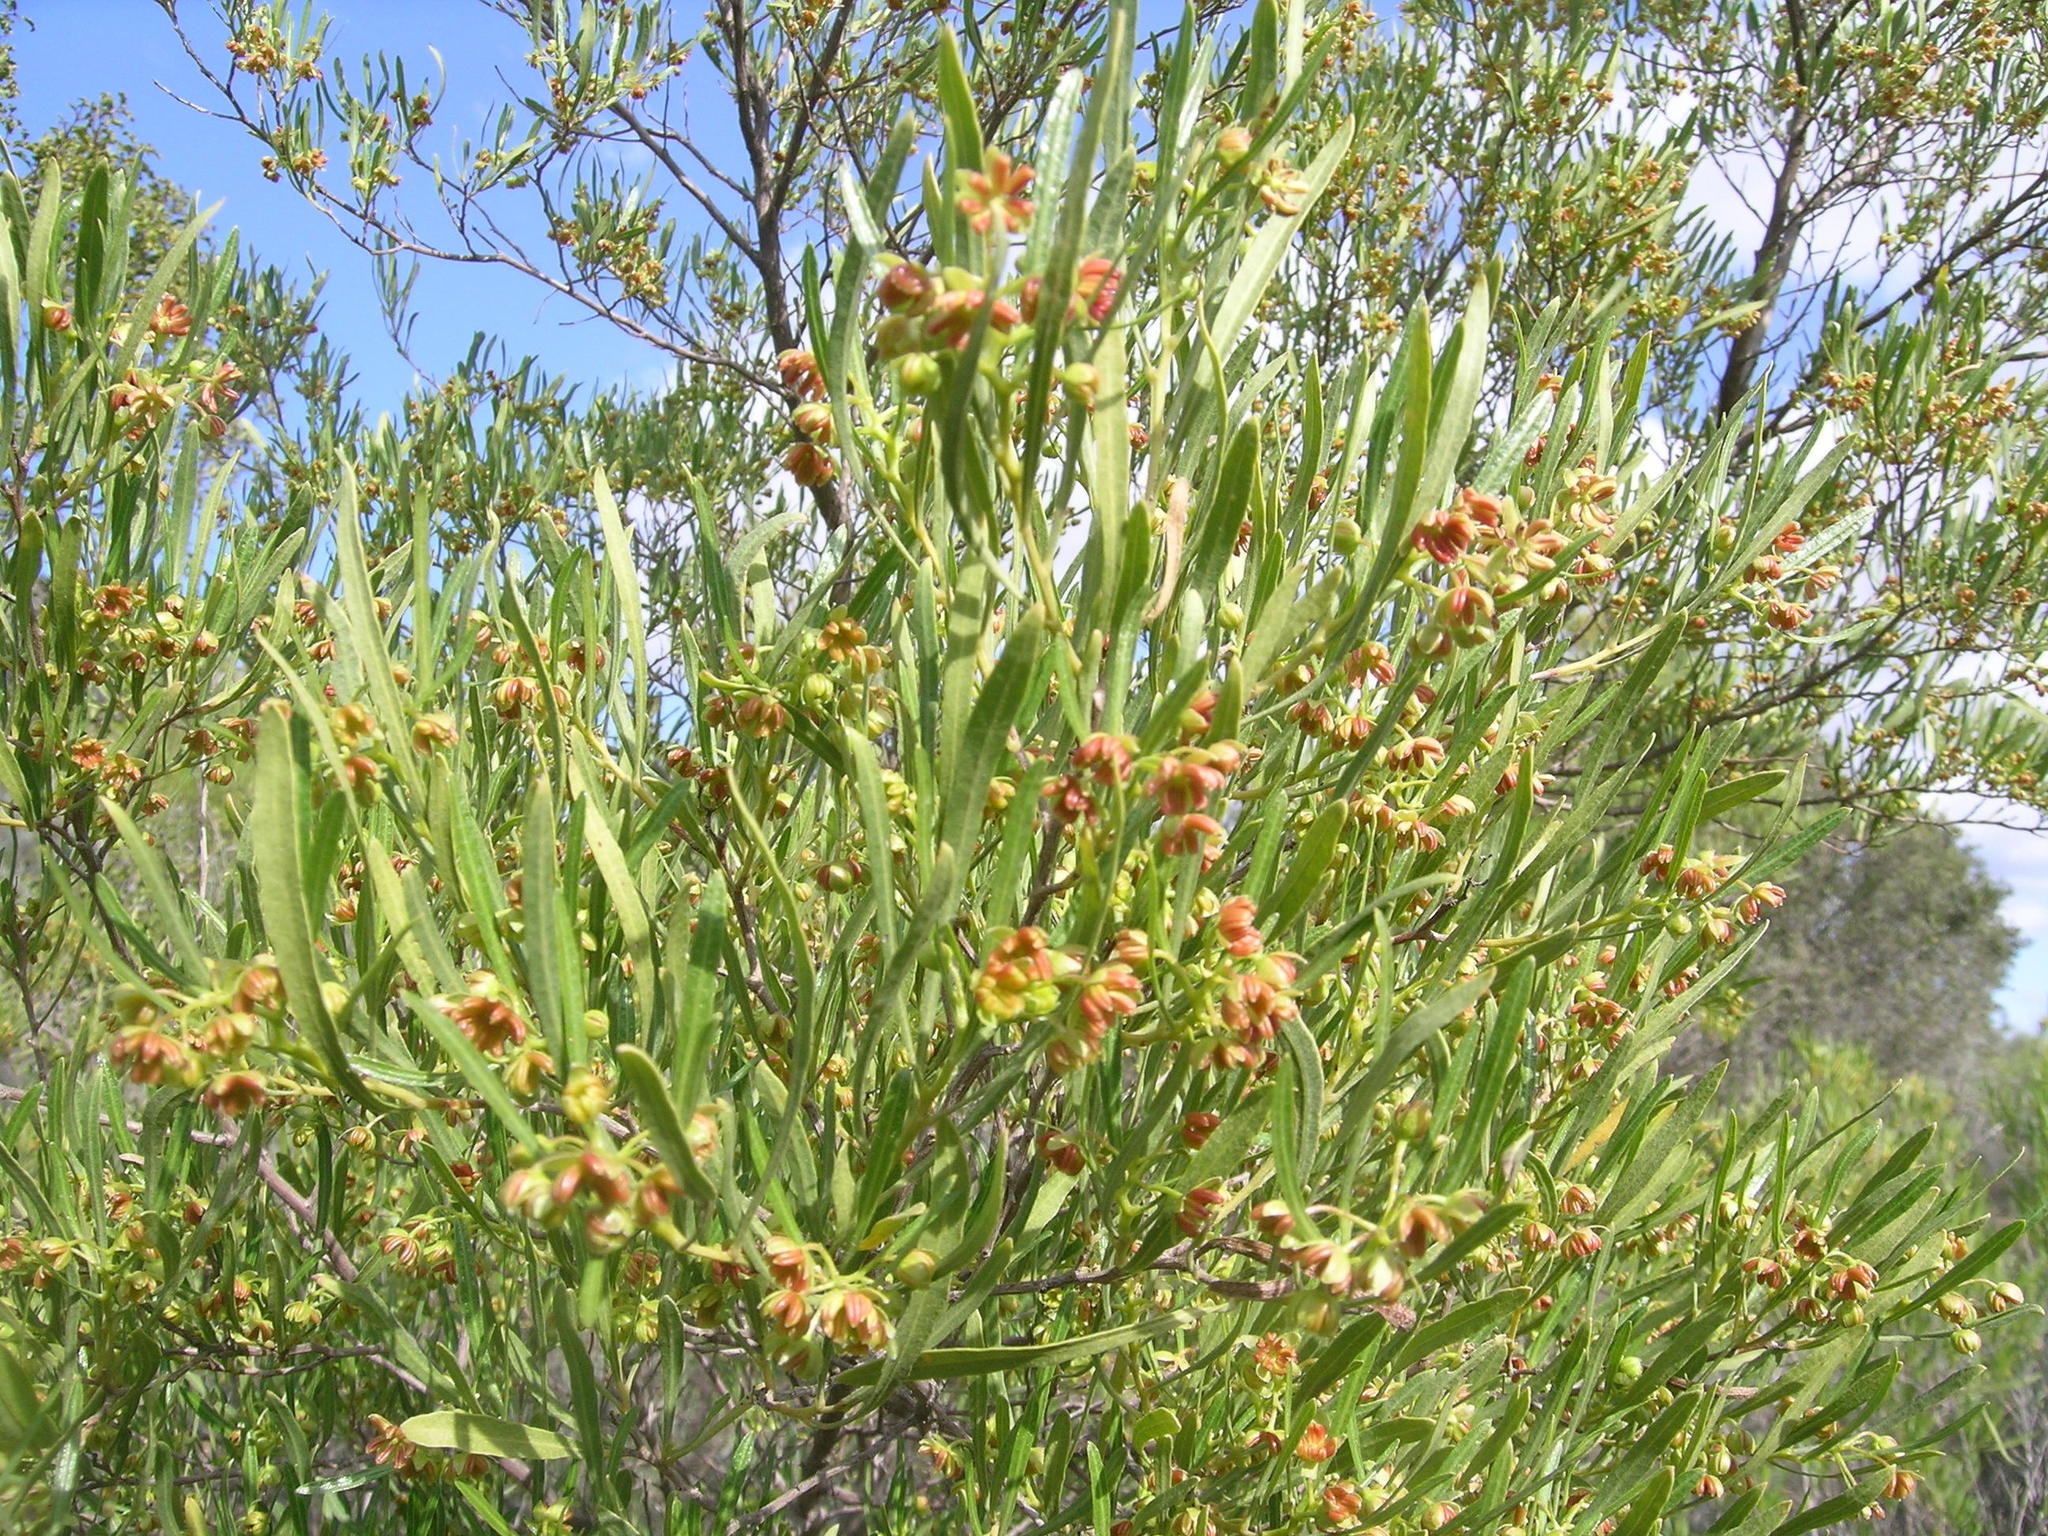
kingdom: Plantae
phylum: Tracheophyta
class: Magnoliopsida
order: Sapindales
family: Sapindaceae
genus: Dodonaea
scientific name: Dodonaea viscosa
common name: Hopbush
